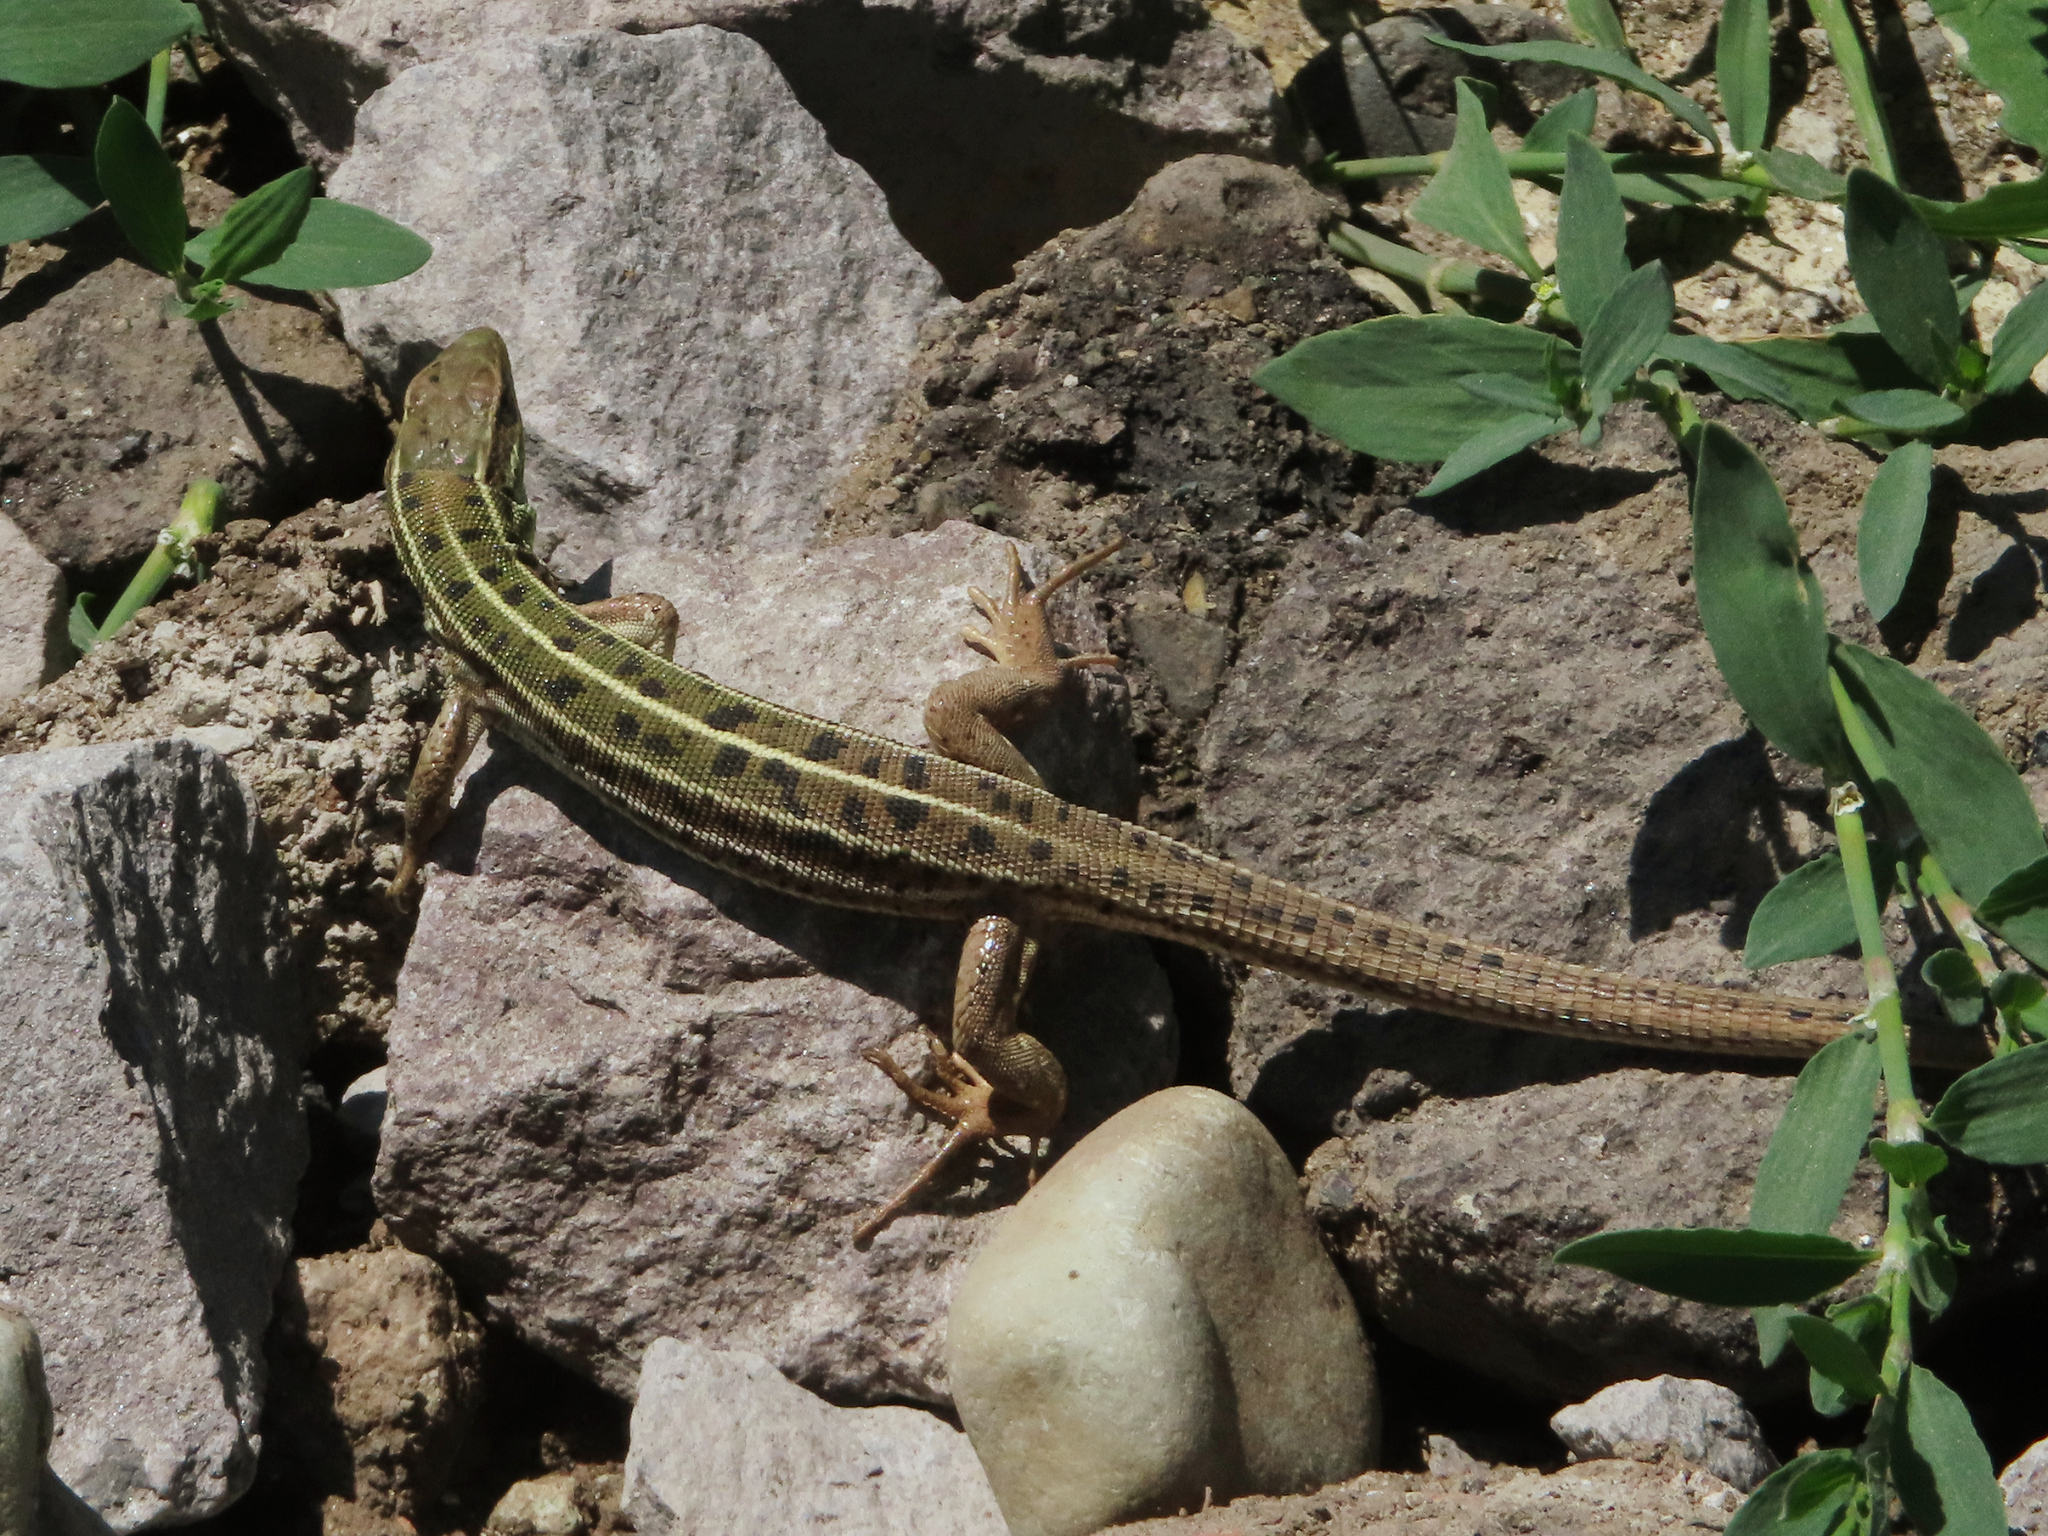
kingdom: Animalia
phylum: Chordata
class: Squamata
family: Lacertidae
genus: Lacerta
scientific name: Lacerta strigata
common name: Caspian green lizard
